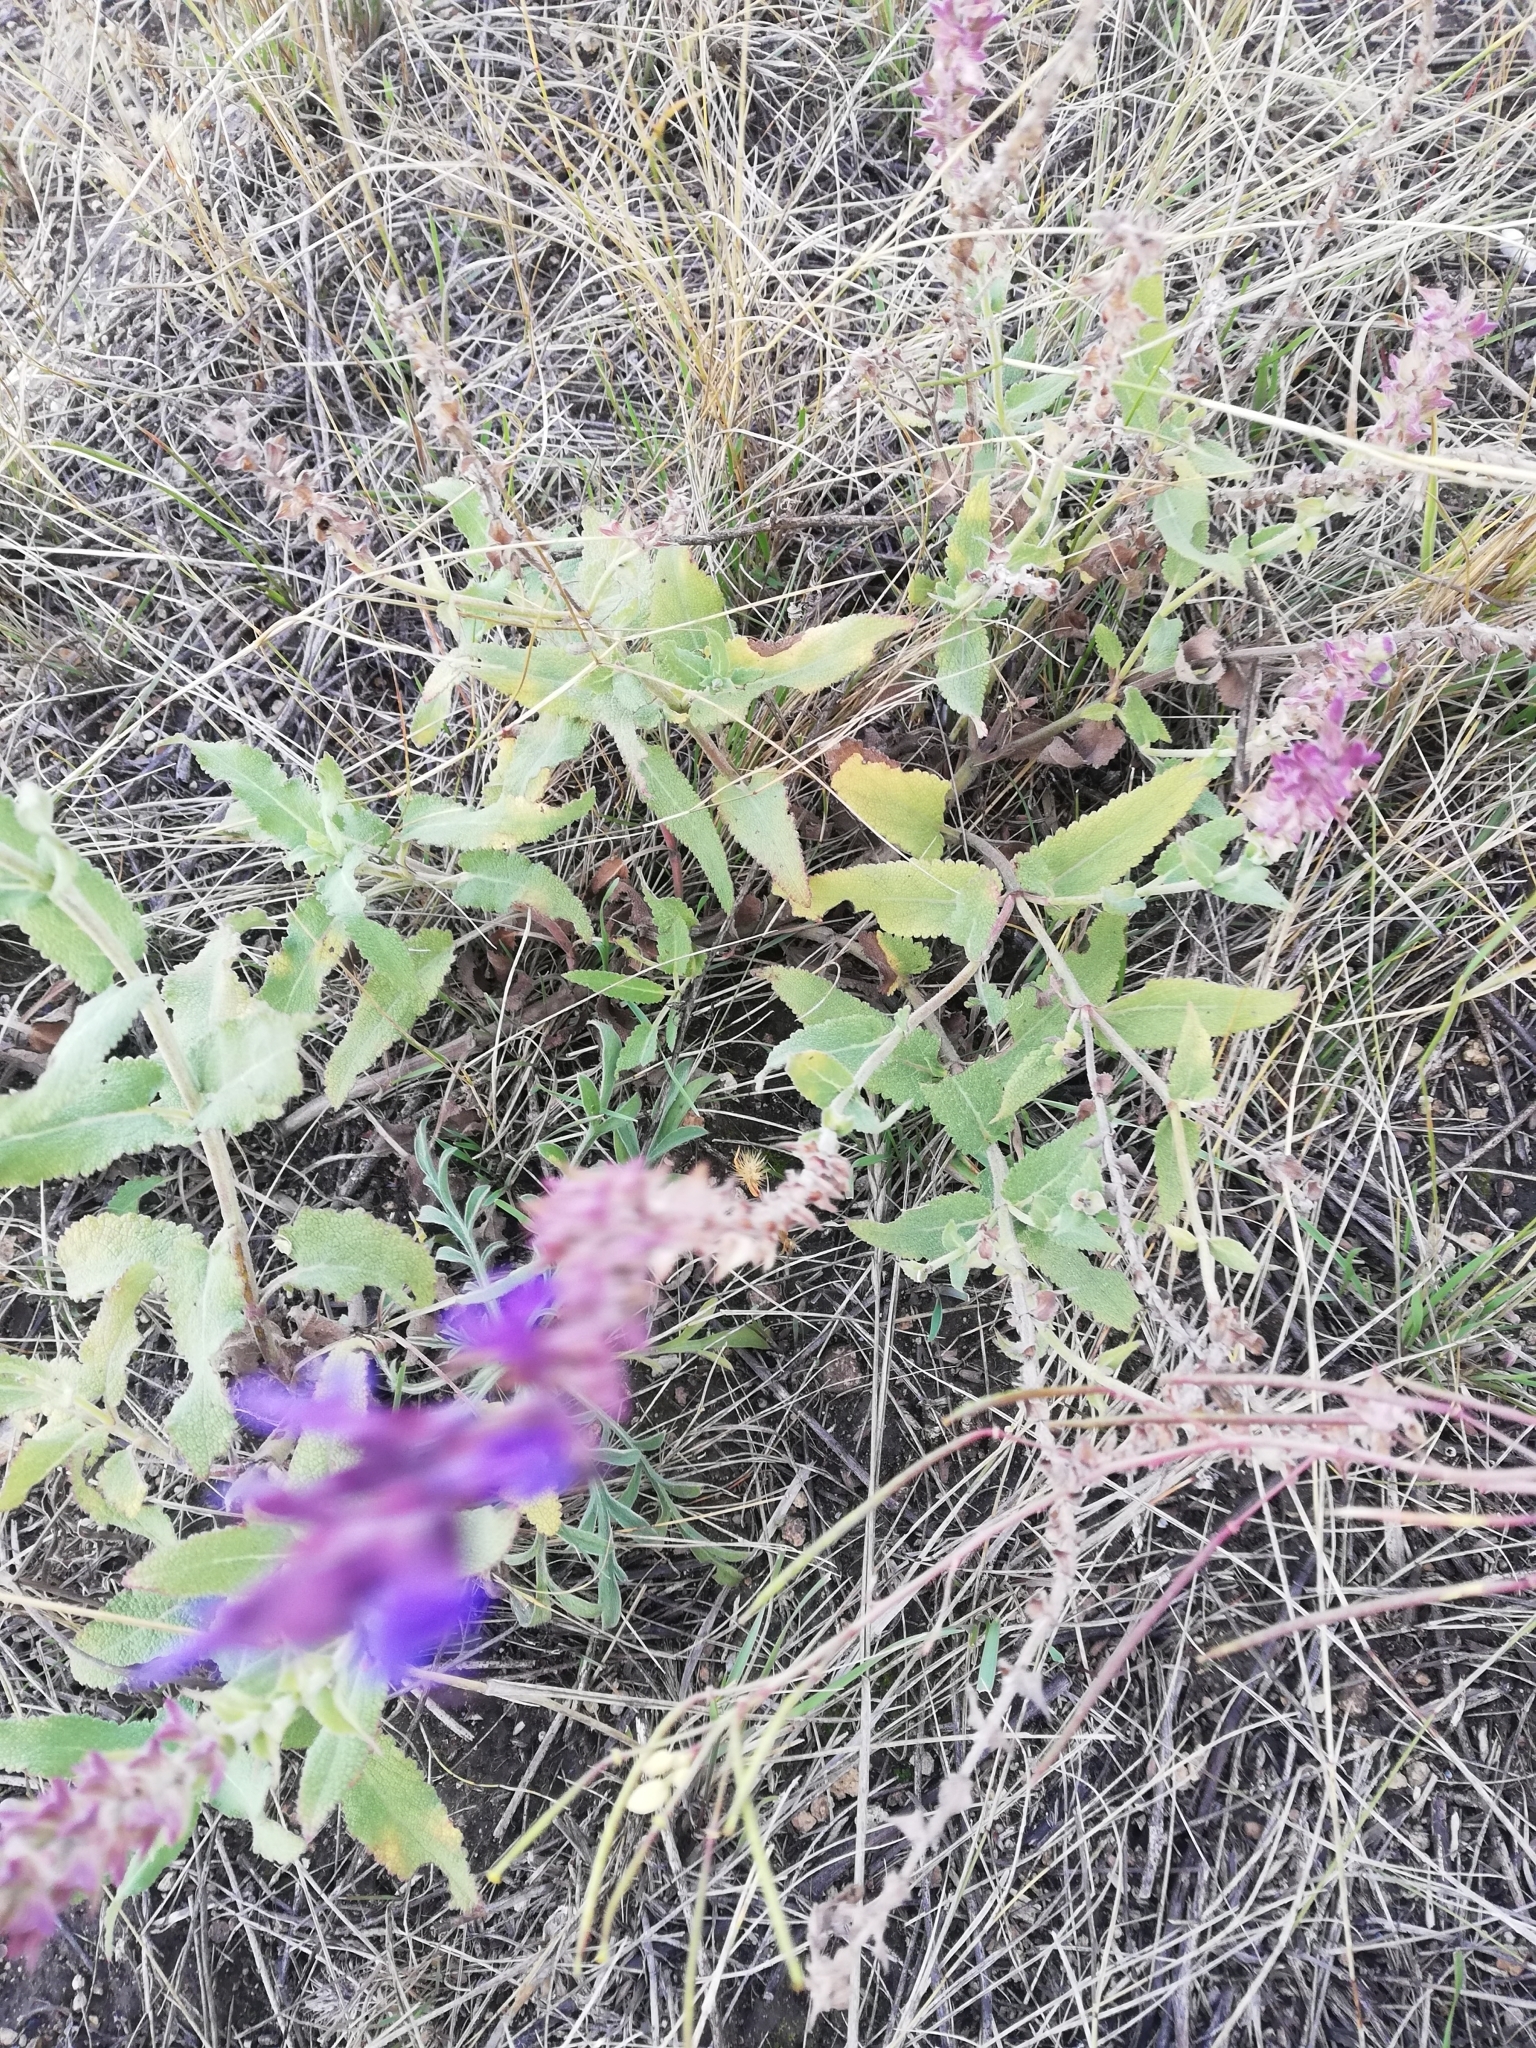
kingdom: Plantae
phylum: Tracheophyta
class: Magnoliopsida
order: Lamiales
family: Lamiaceae
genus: Salvia
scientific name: Salvia nemorosa
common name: Balkan clary
